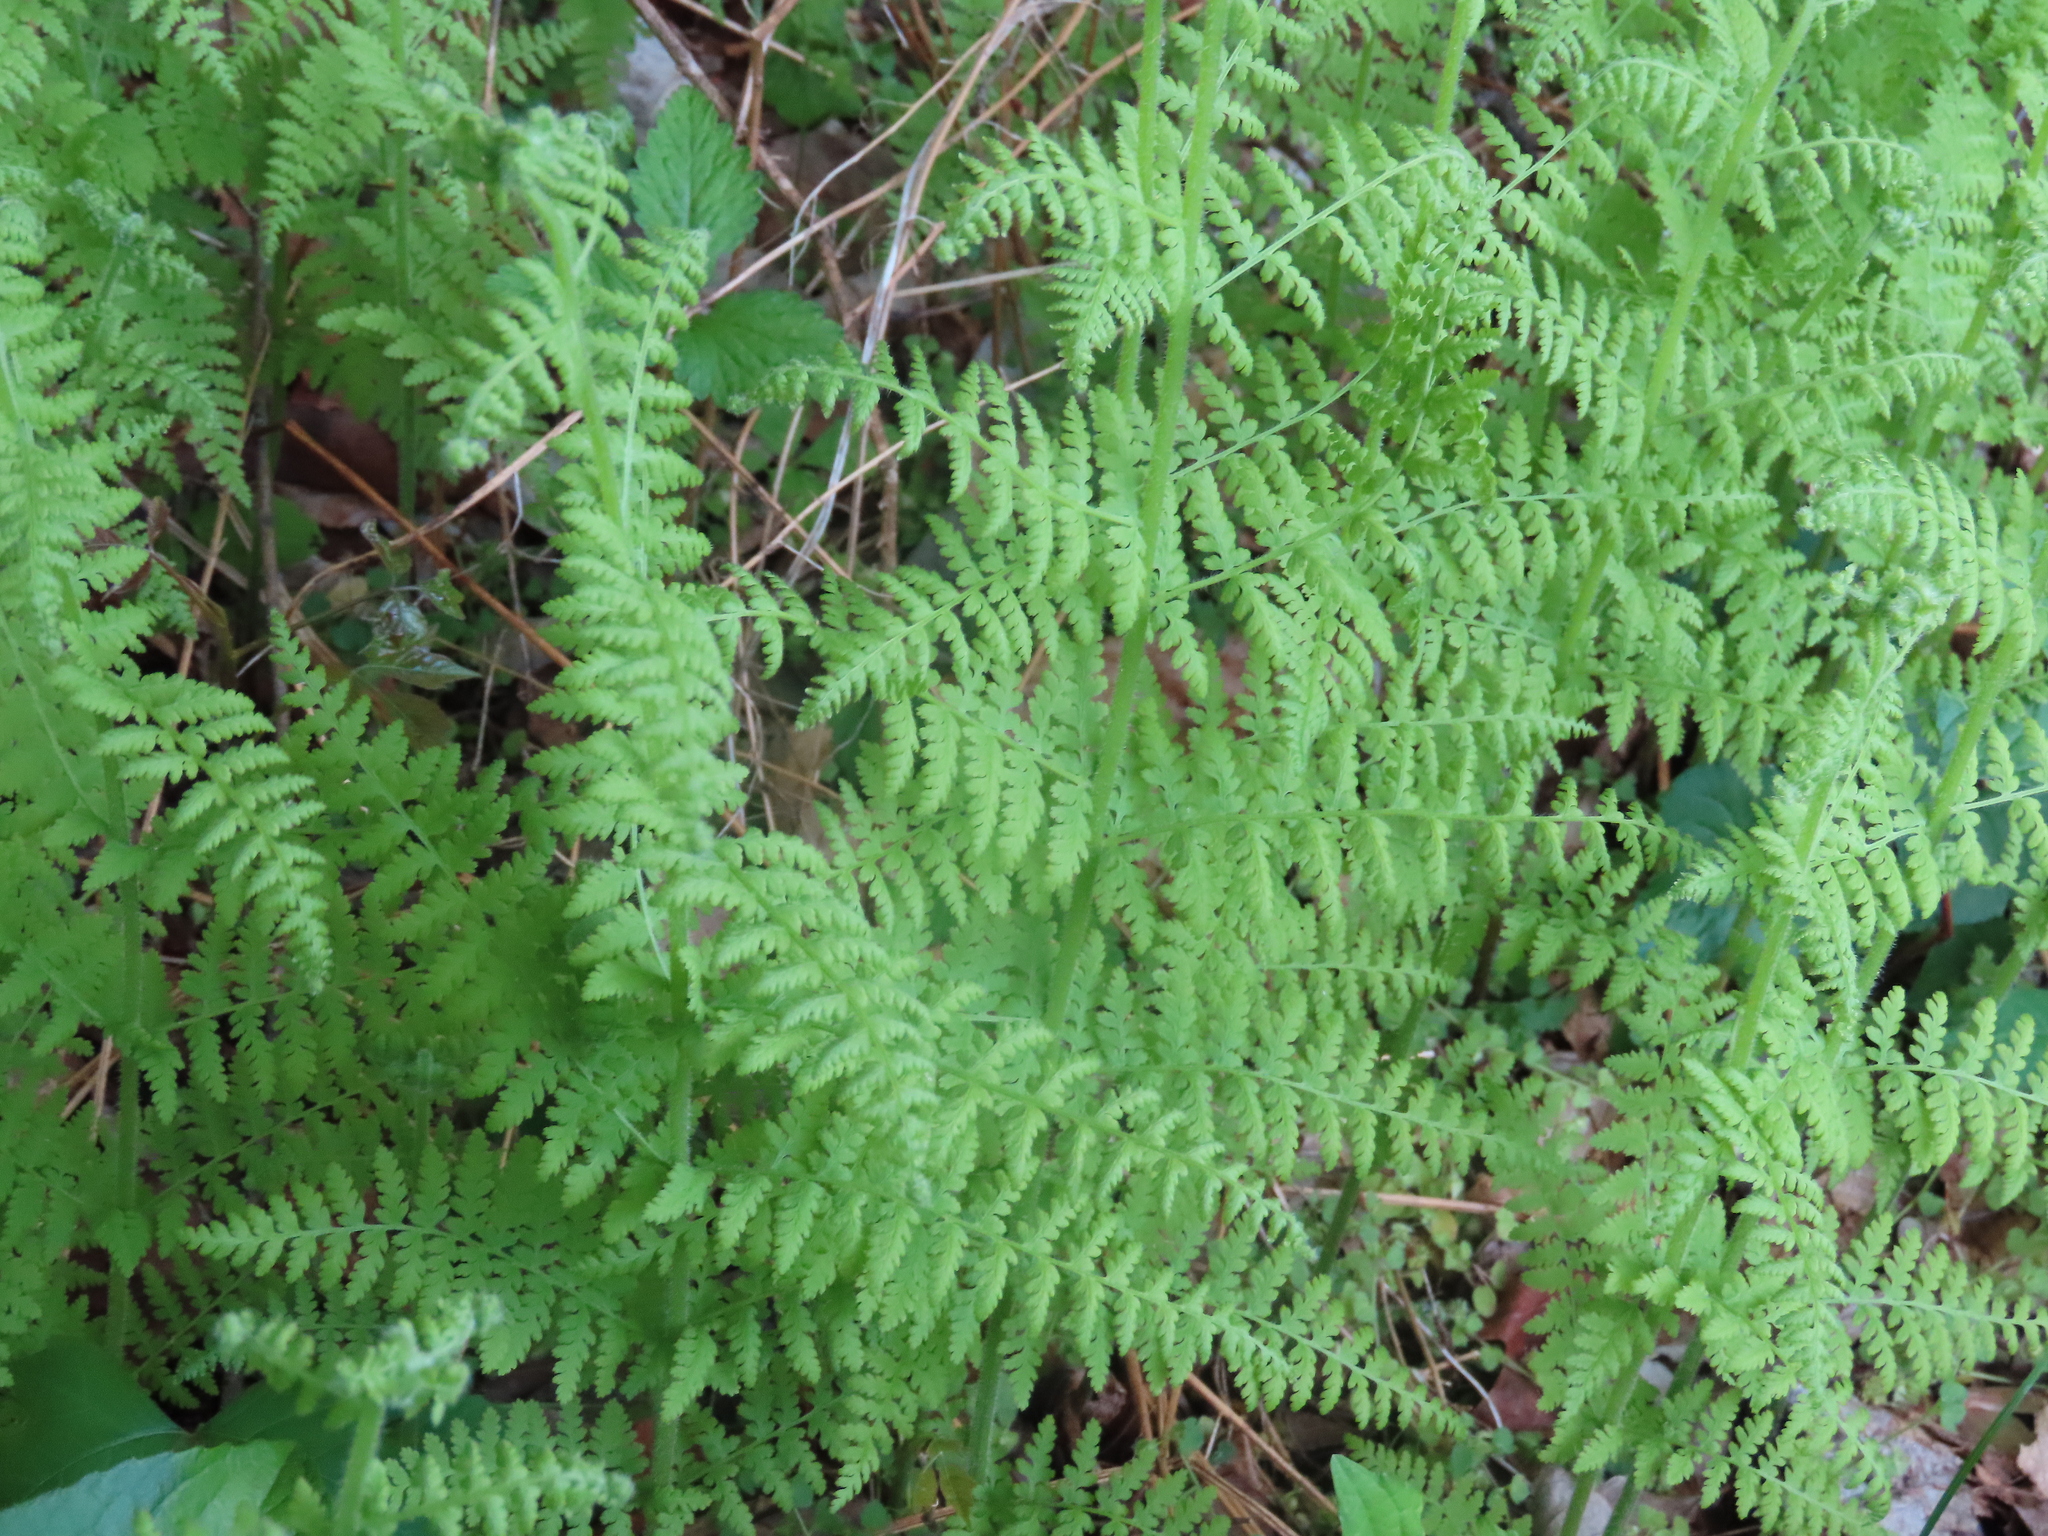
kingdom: Plantae
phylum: Tracheophyta
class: Polypodiopsida
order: Polypodiales
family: Dennstaedtiaceae
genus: Sitobolium
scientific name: Sitobolium punctilobum
